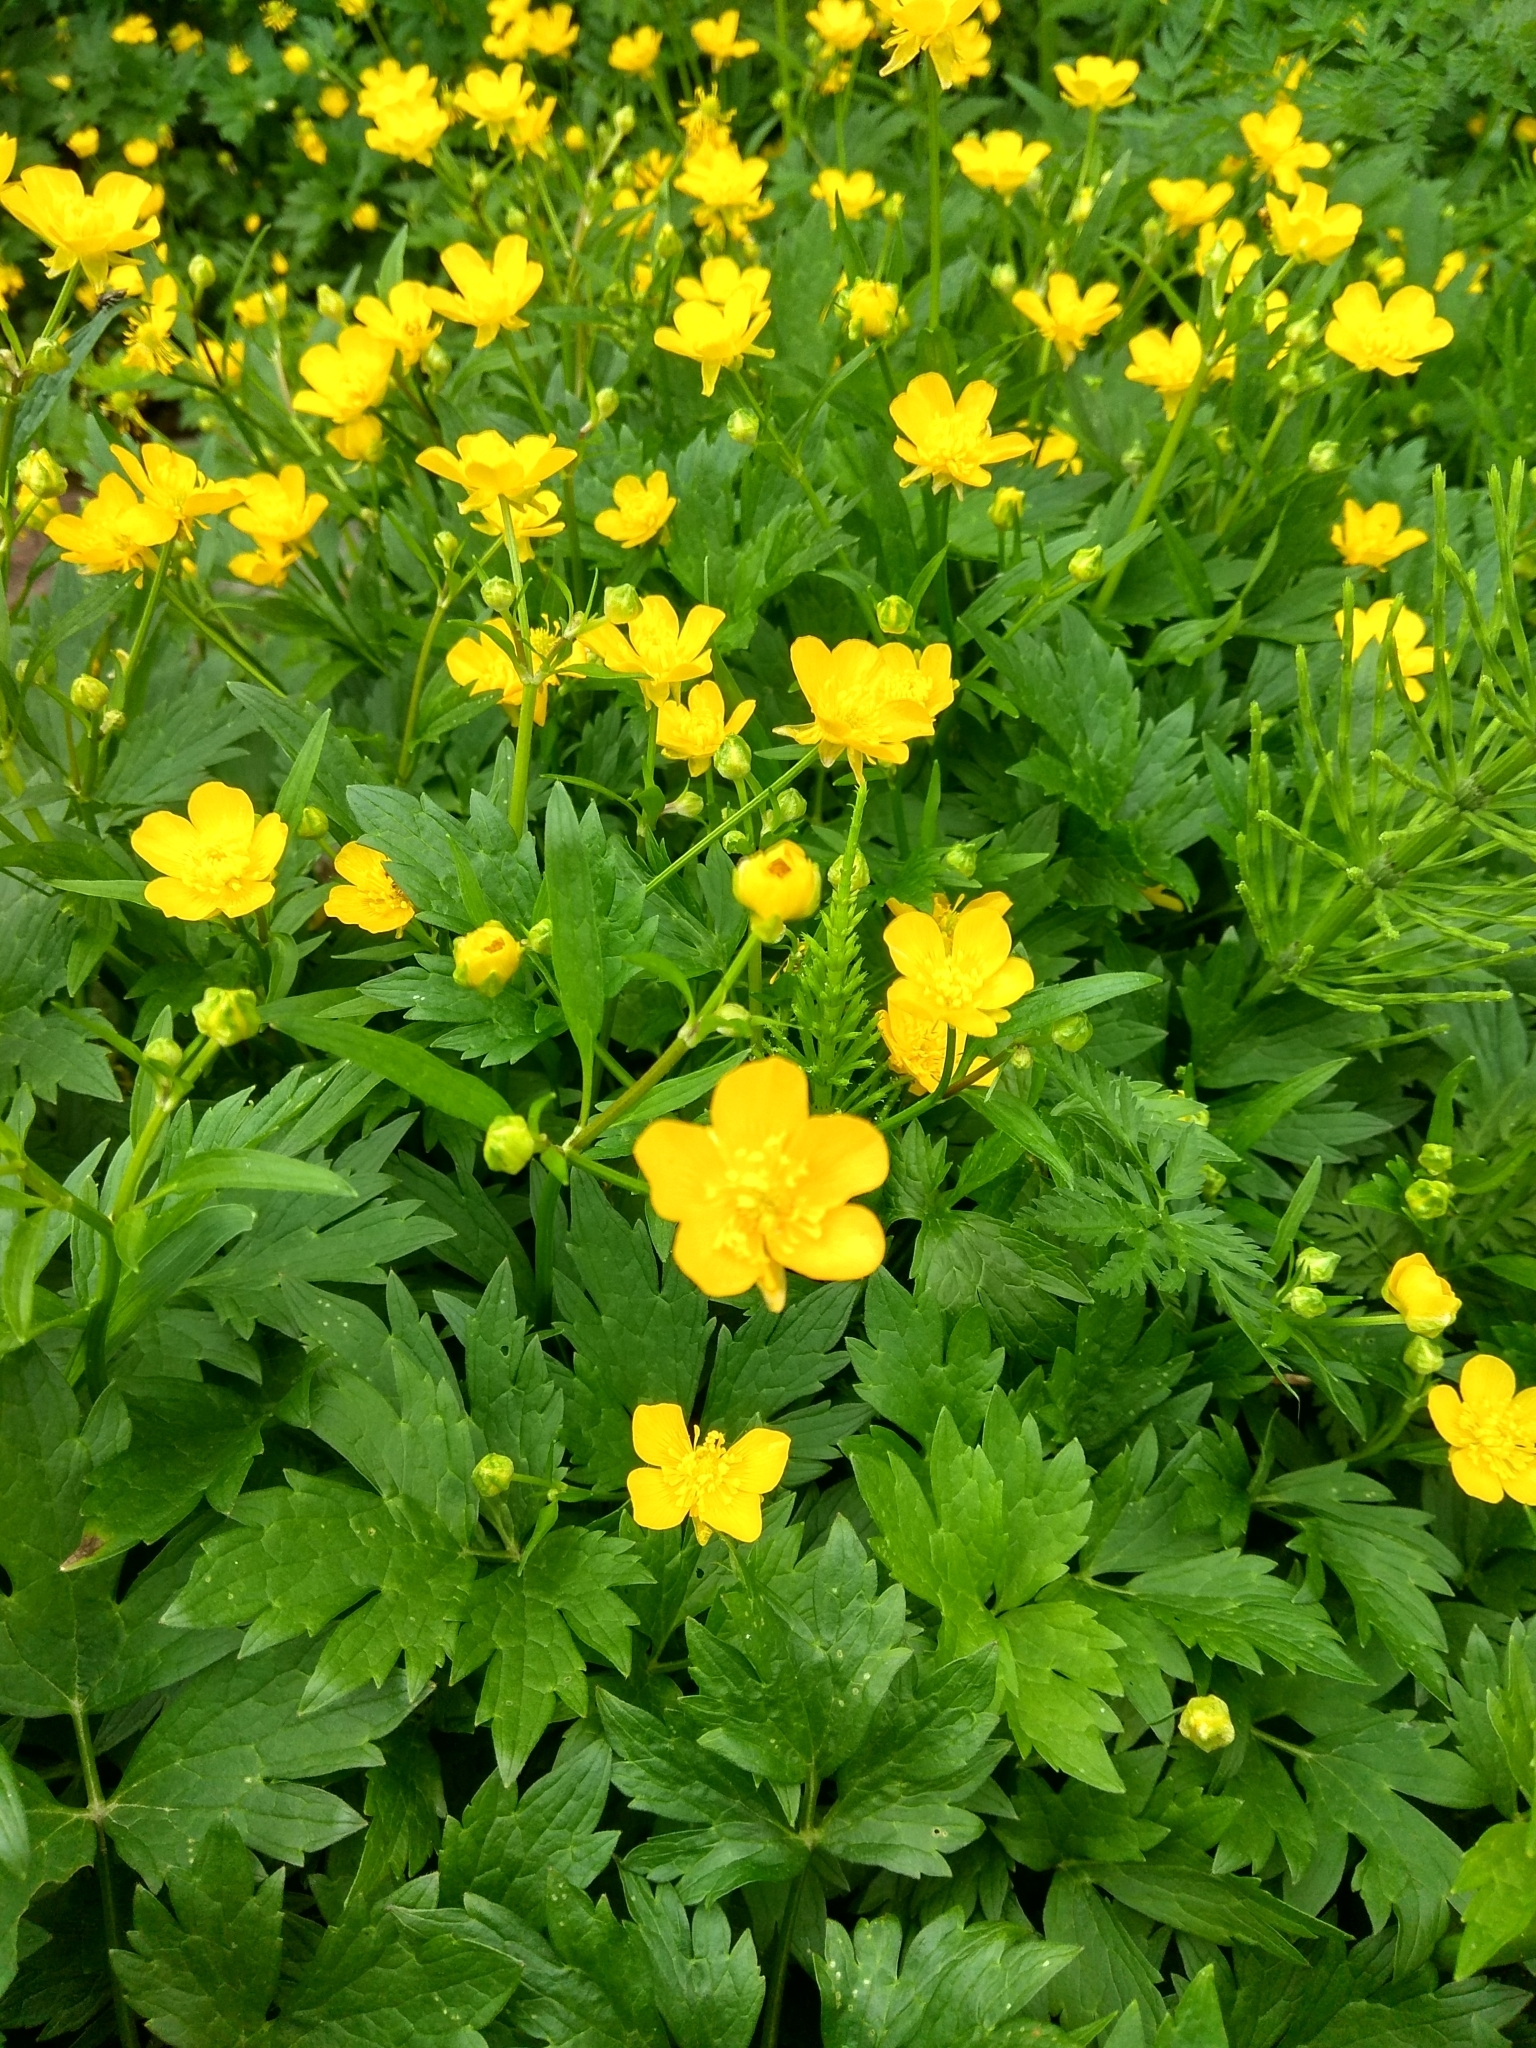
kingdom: Plantae
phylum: Tracheophyta
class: Magnoliopsida
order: Ranunculales
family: Ranunculaceae
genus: Ranunculus
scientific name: Ranunculus repens
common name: Creeping buttercup
